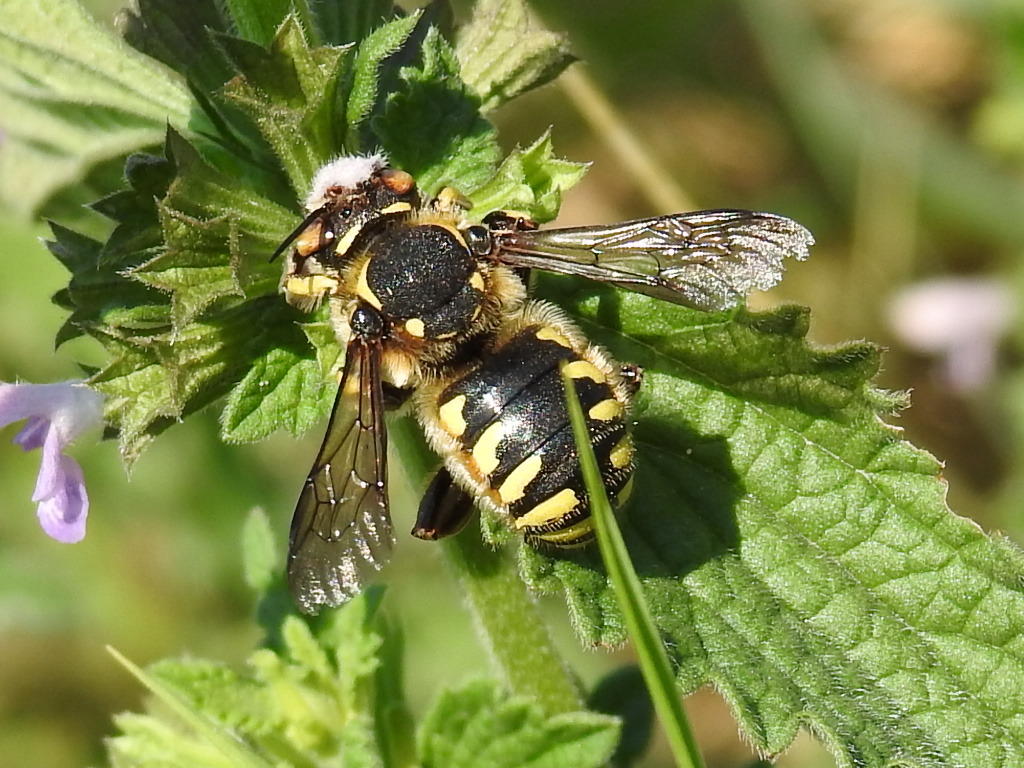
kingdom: Animalia
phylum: Arthropoda
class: Insecta
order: Hymenoptera
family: Megachilidae
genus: Anthidium
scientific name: Anthidium florentinum
